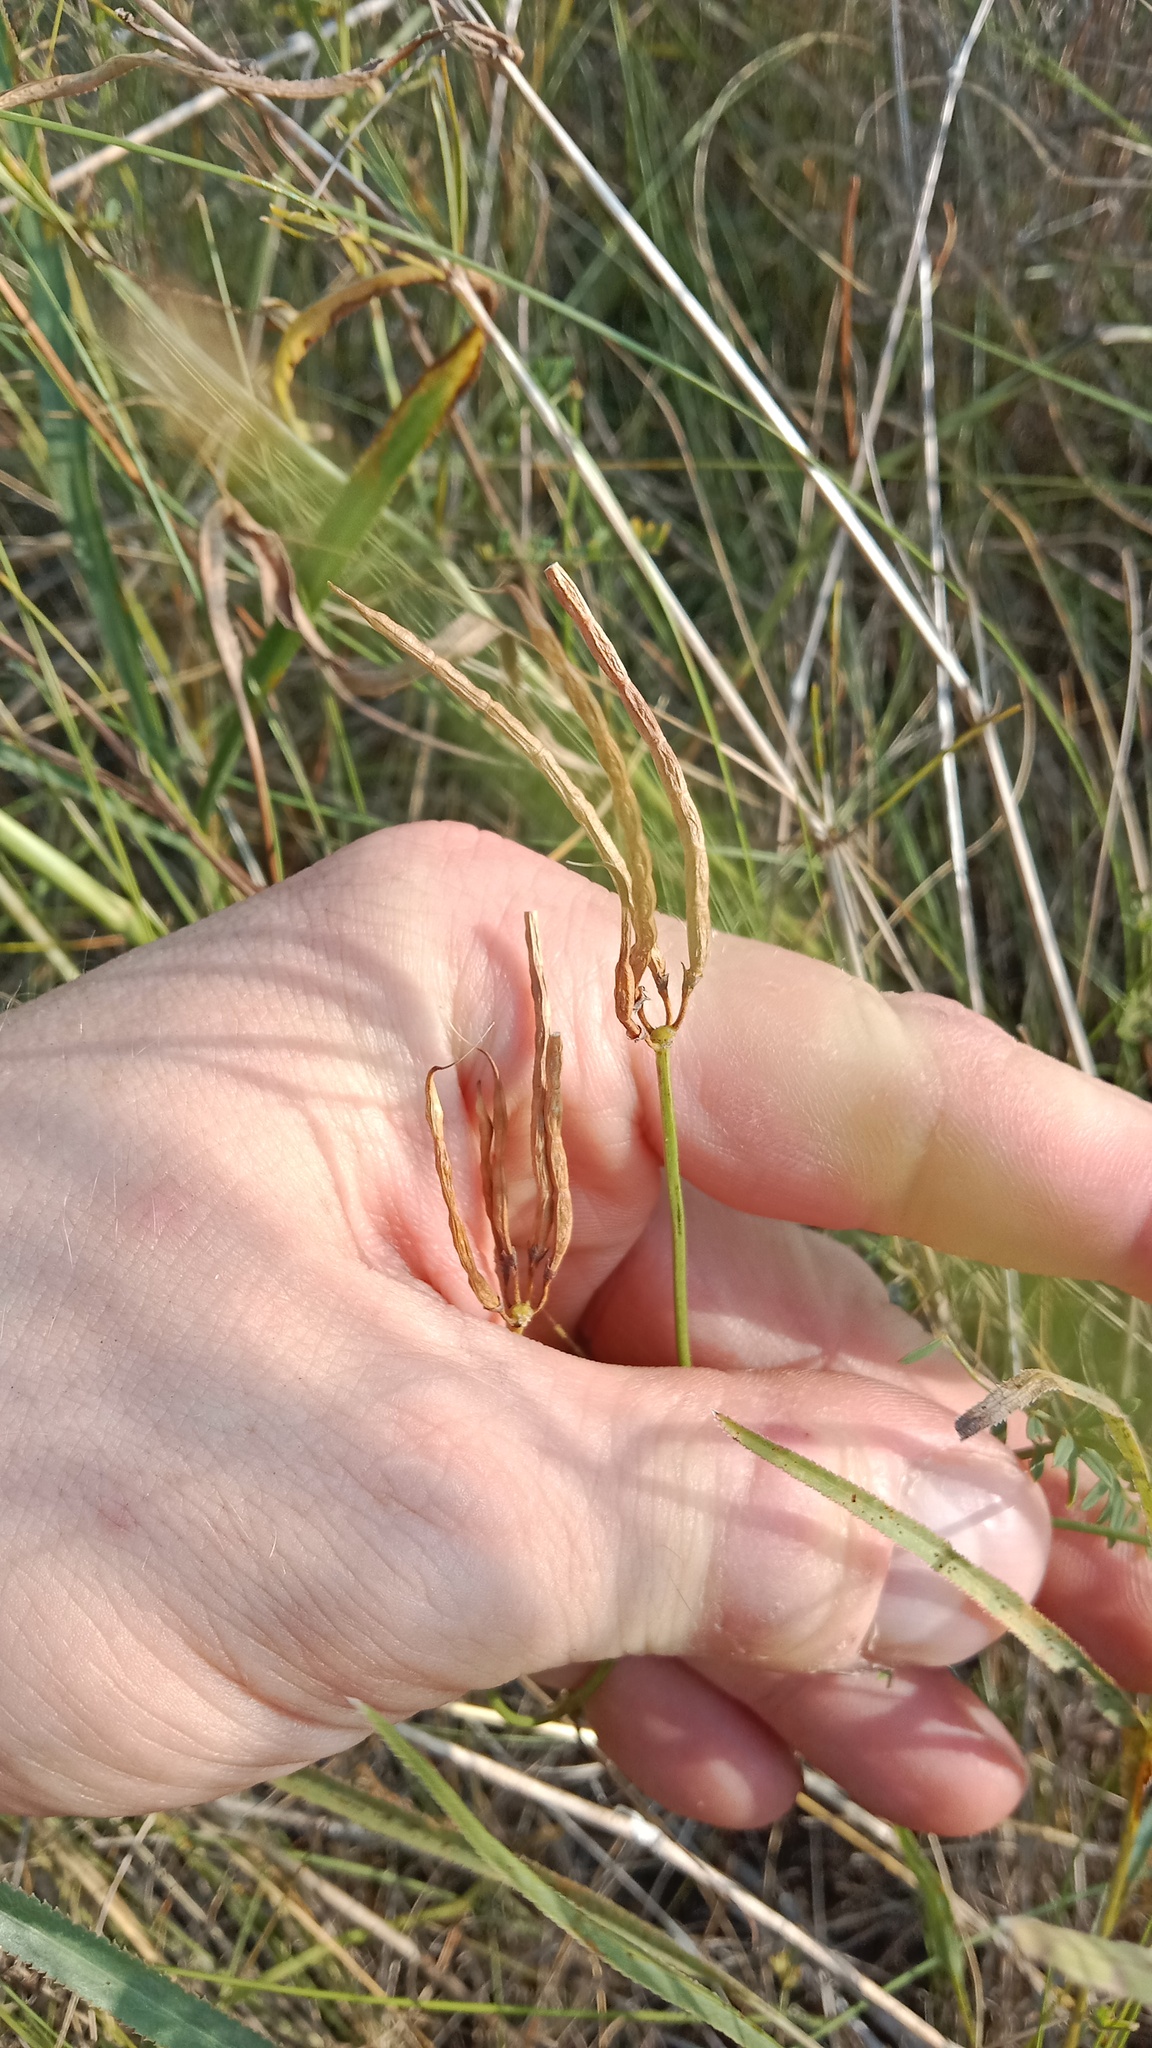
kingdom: Plantae
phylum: Tracheophyta
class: Magnoliopsida
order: Apiales
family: Apiaceae
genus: Falcaria
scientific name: Falcaria vulgaris
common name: Longleaf
